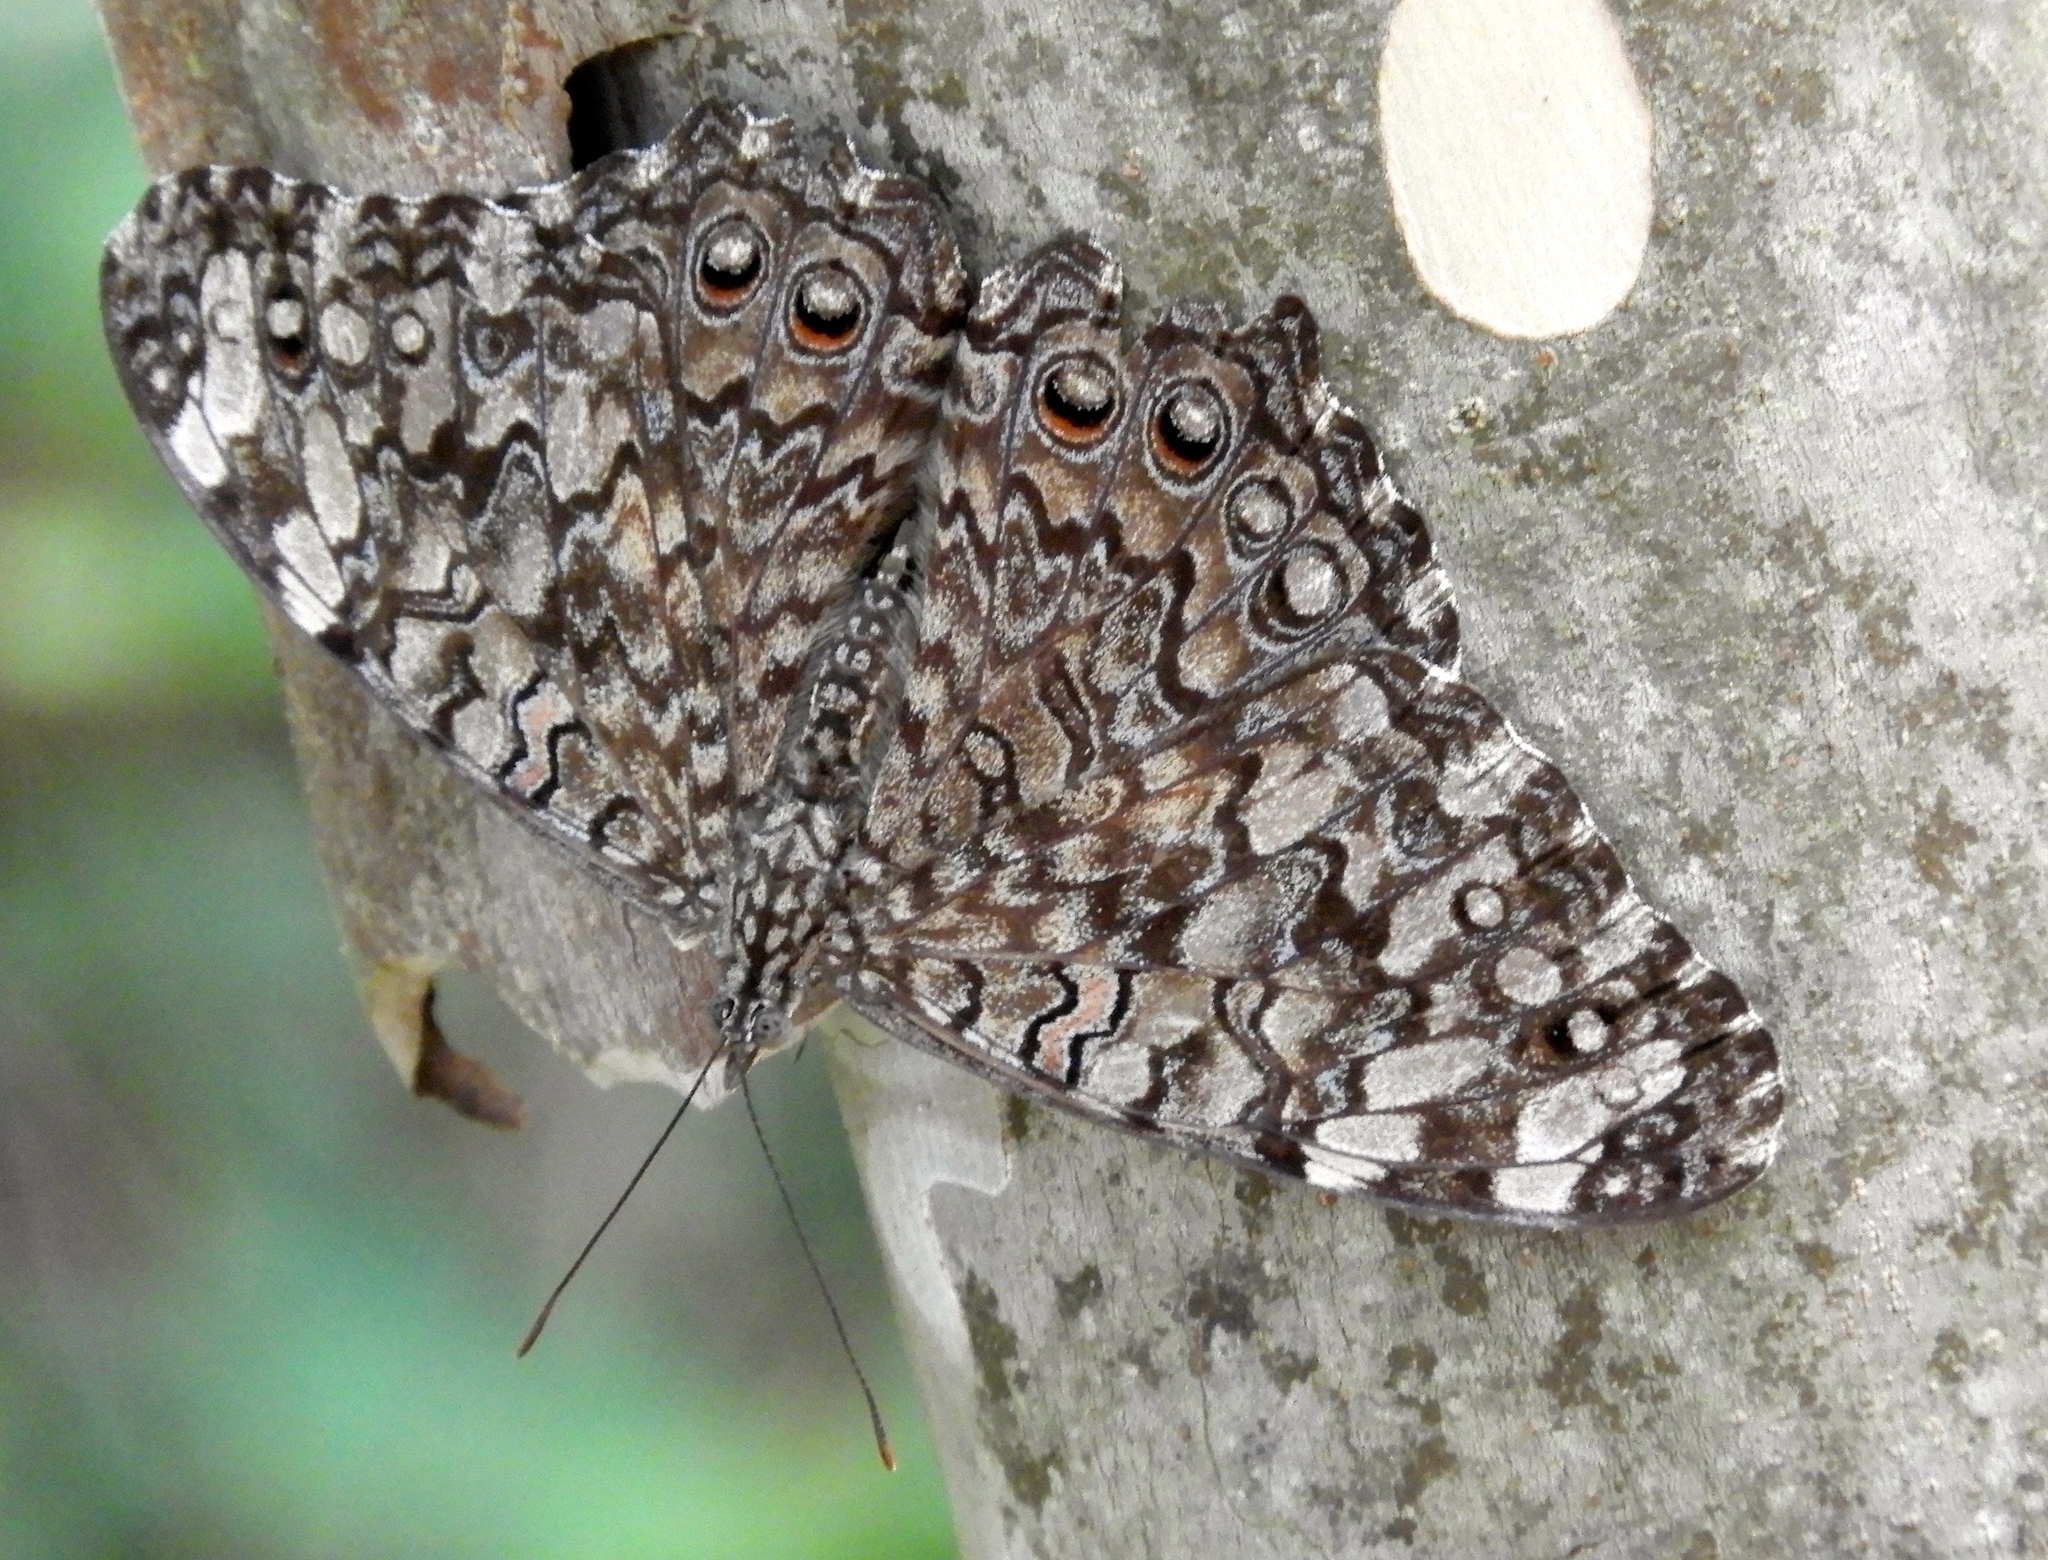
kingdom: Animalia
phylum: Arthropoda
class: Insecta
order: Lepidoptera
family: Nymphalidae
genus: Hamadryas
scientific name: Hamadryas februa
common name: Gray cracker
